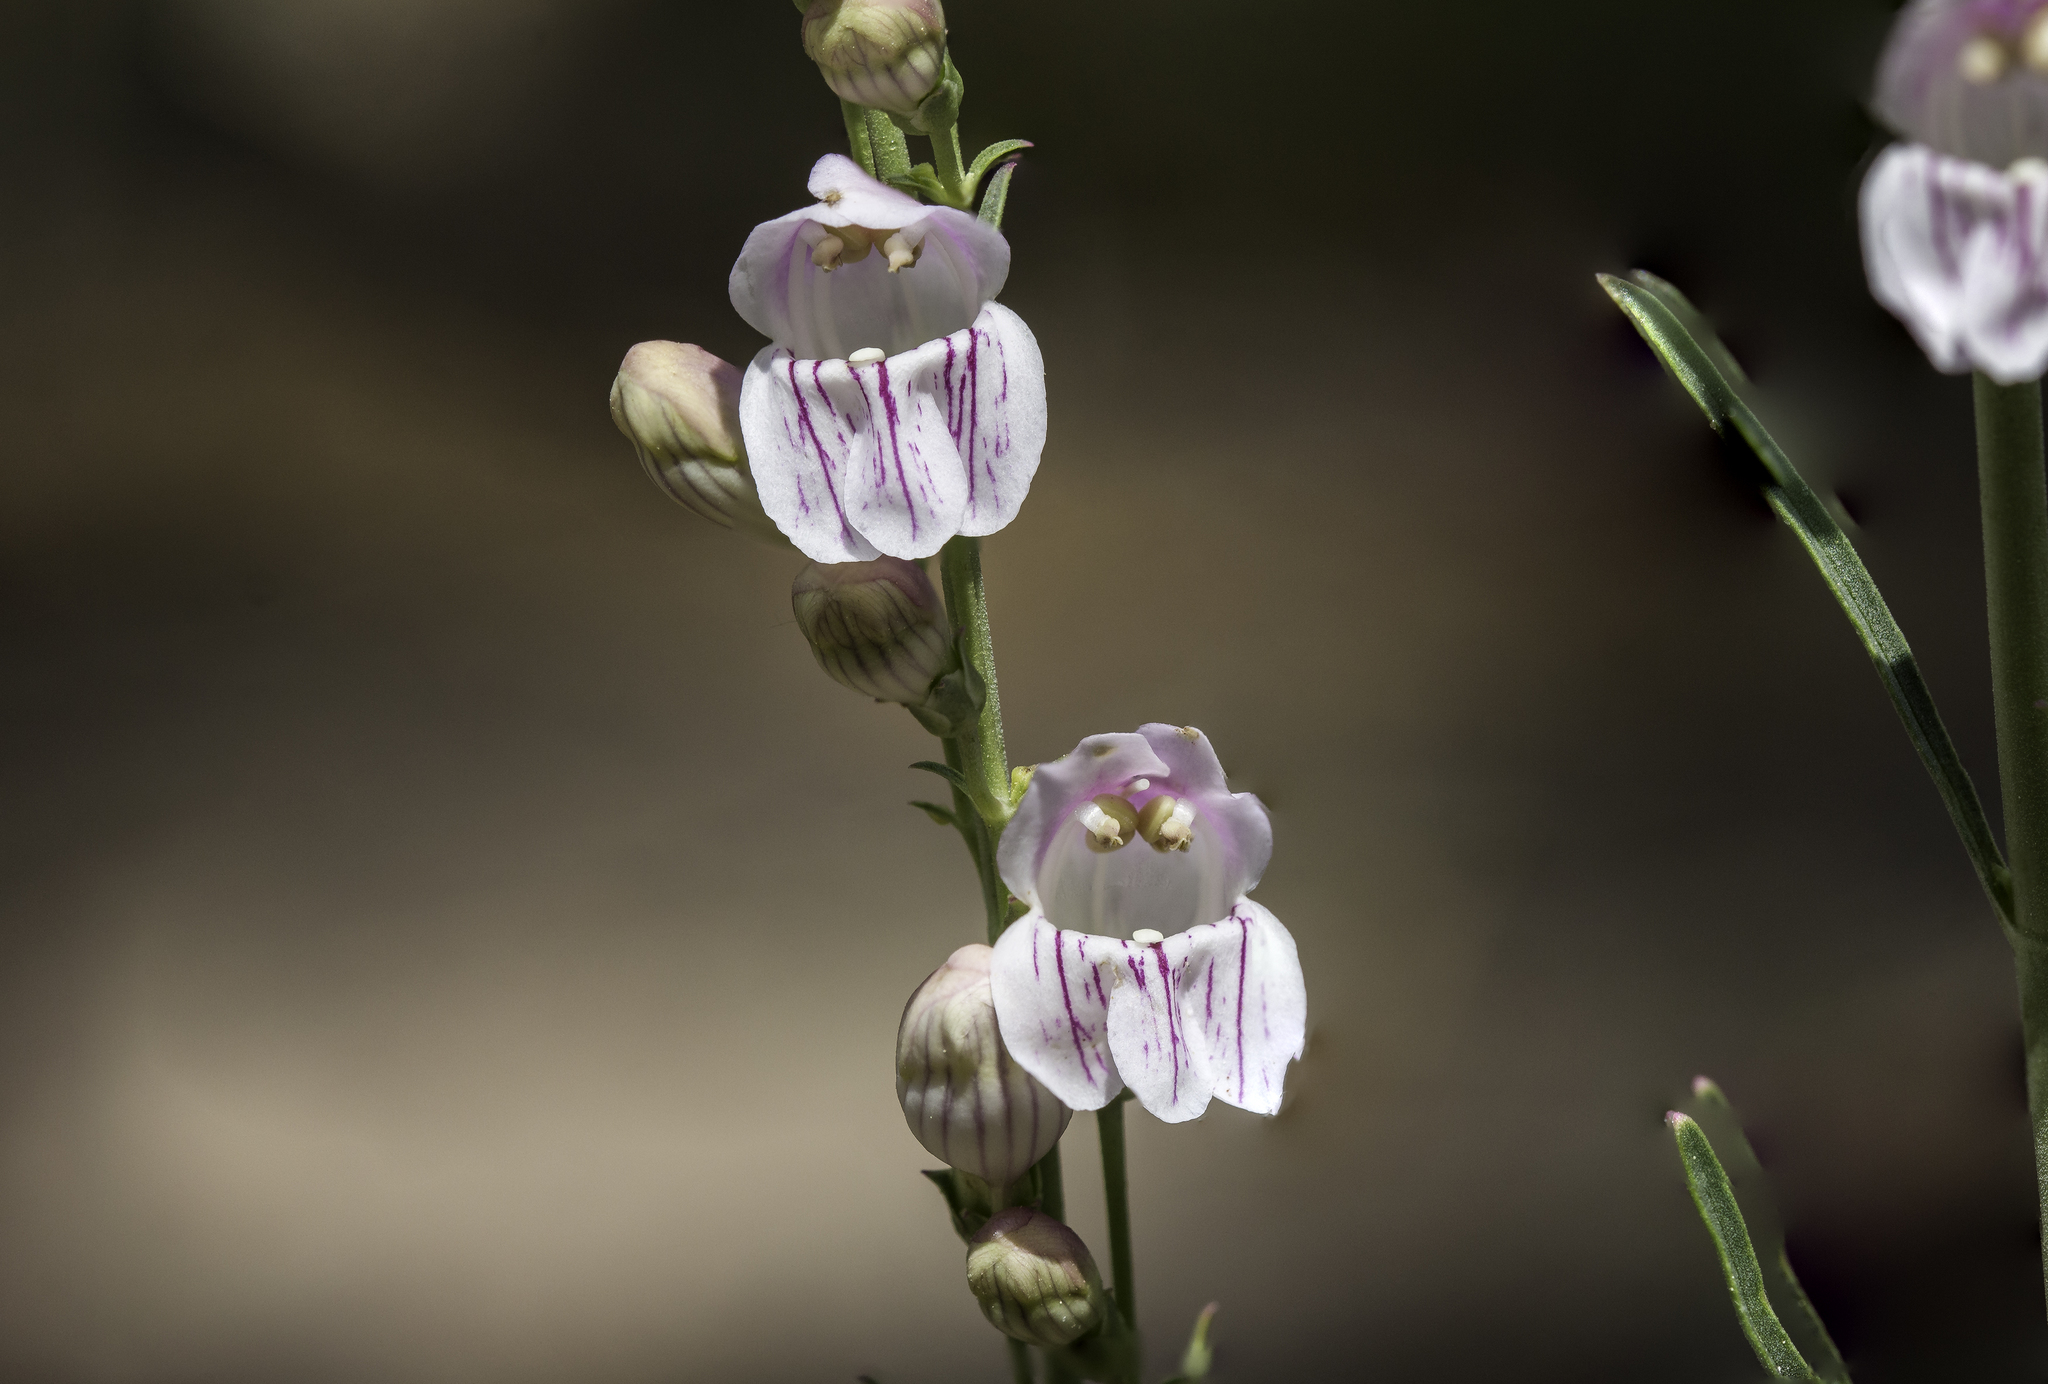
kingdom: Plantae
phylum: Tracheophyta
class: Magnoliopsida
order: Lamiales
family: Plantaginaceae
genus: Penstemon
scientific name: Penstemon virgatus
